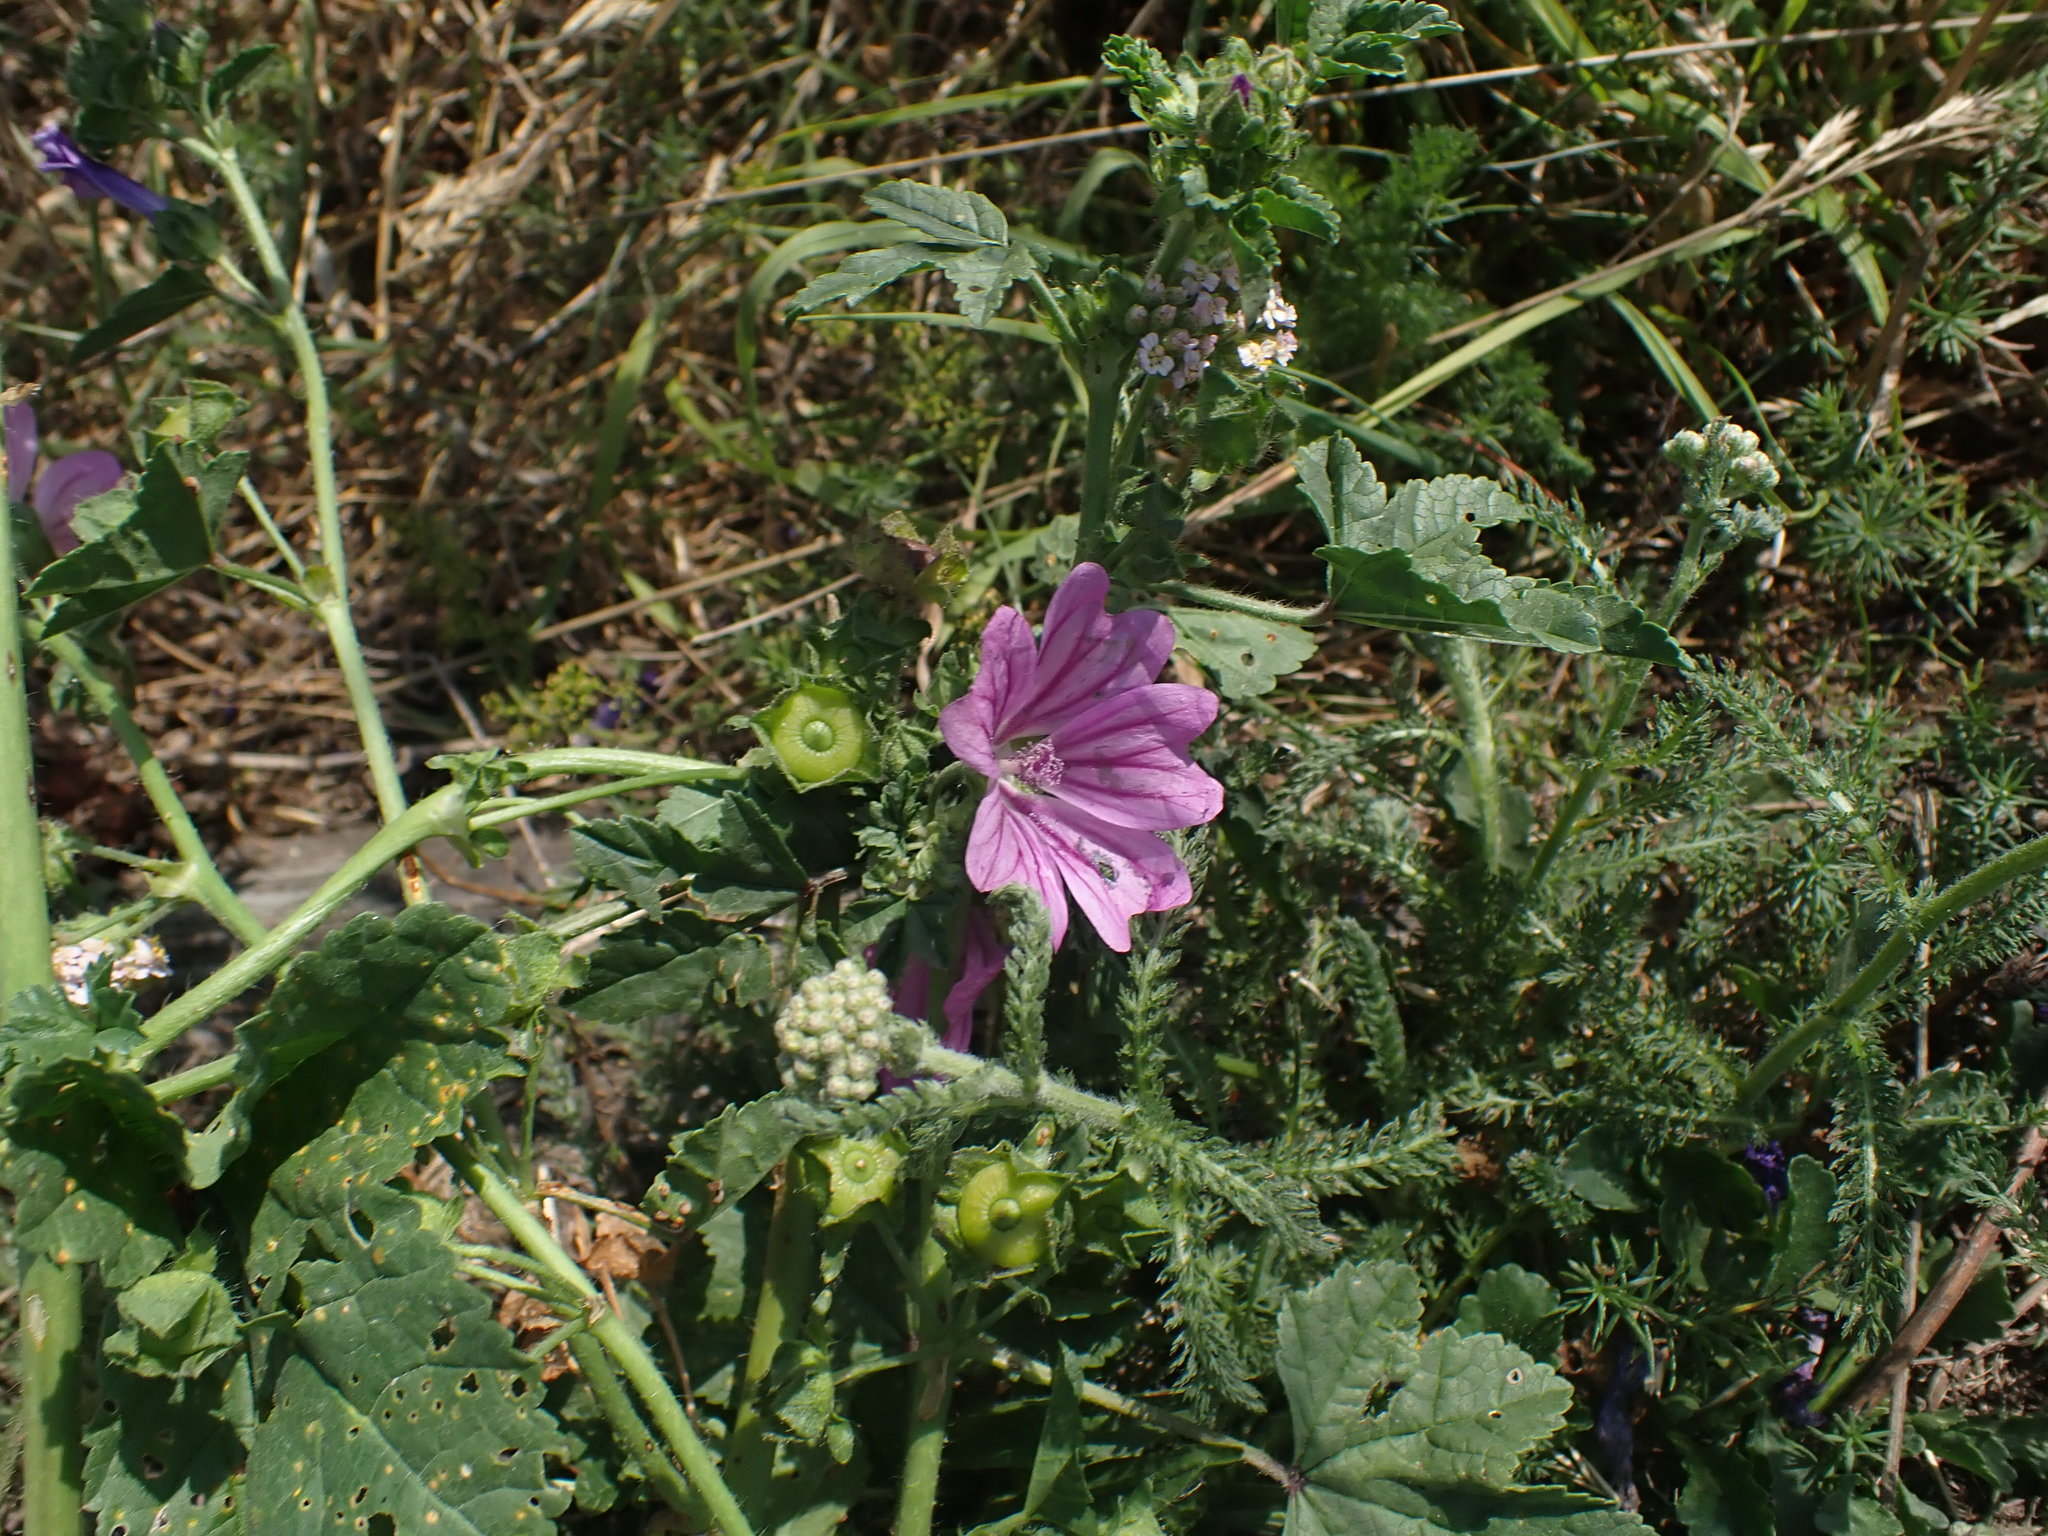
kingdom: Plantae
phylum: Tracheophyta
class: Magnoliopsida
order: Malvales
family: Malvaceae
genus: Malva
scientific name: Malva sylvestris
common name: Common mallow
